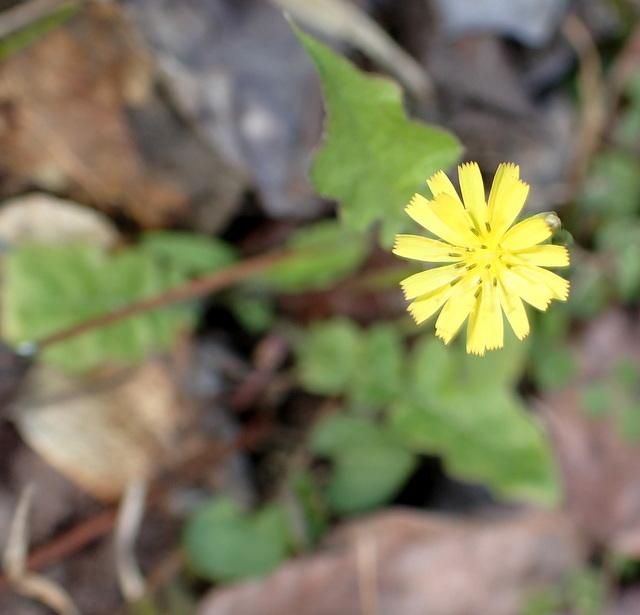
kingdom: Plantae
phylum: Tracheophyta
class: Magnoliopsida
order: Asterales
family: Asteraceae
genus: Youngia
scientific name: Youngia japonica
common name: Oriental false hawksbeard
